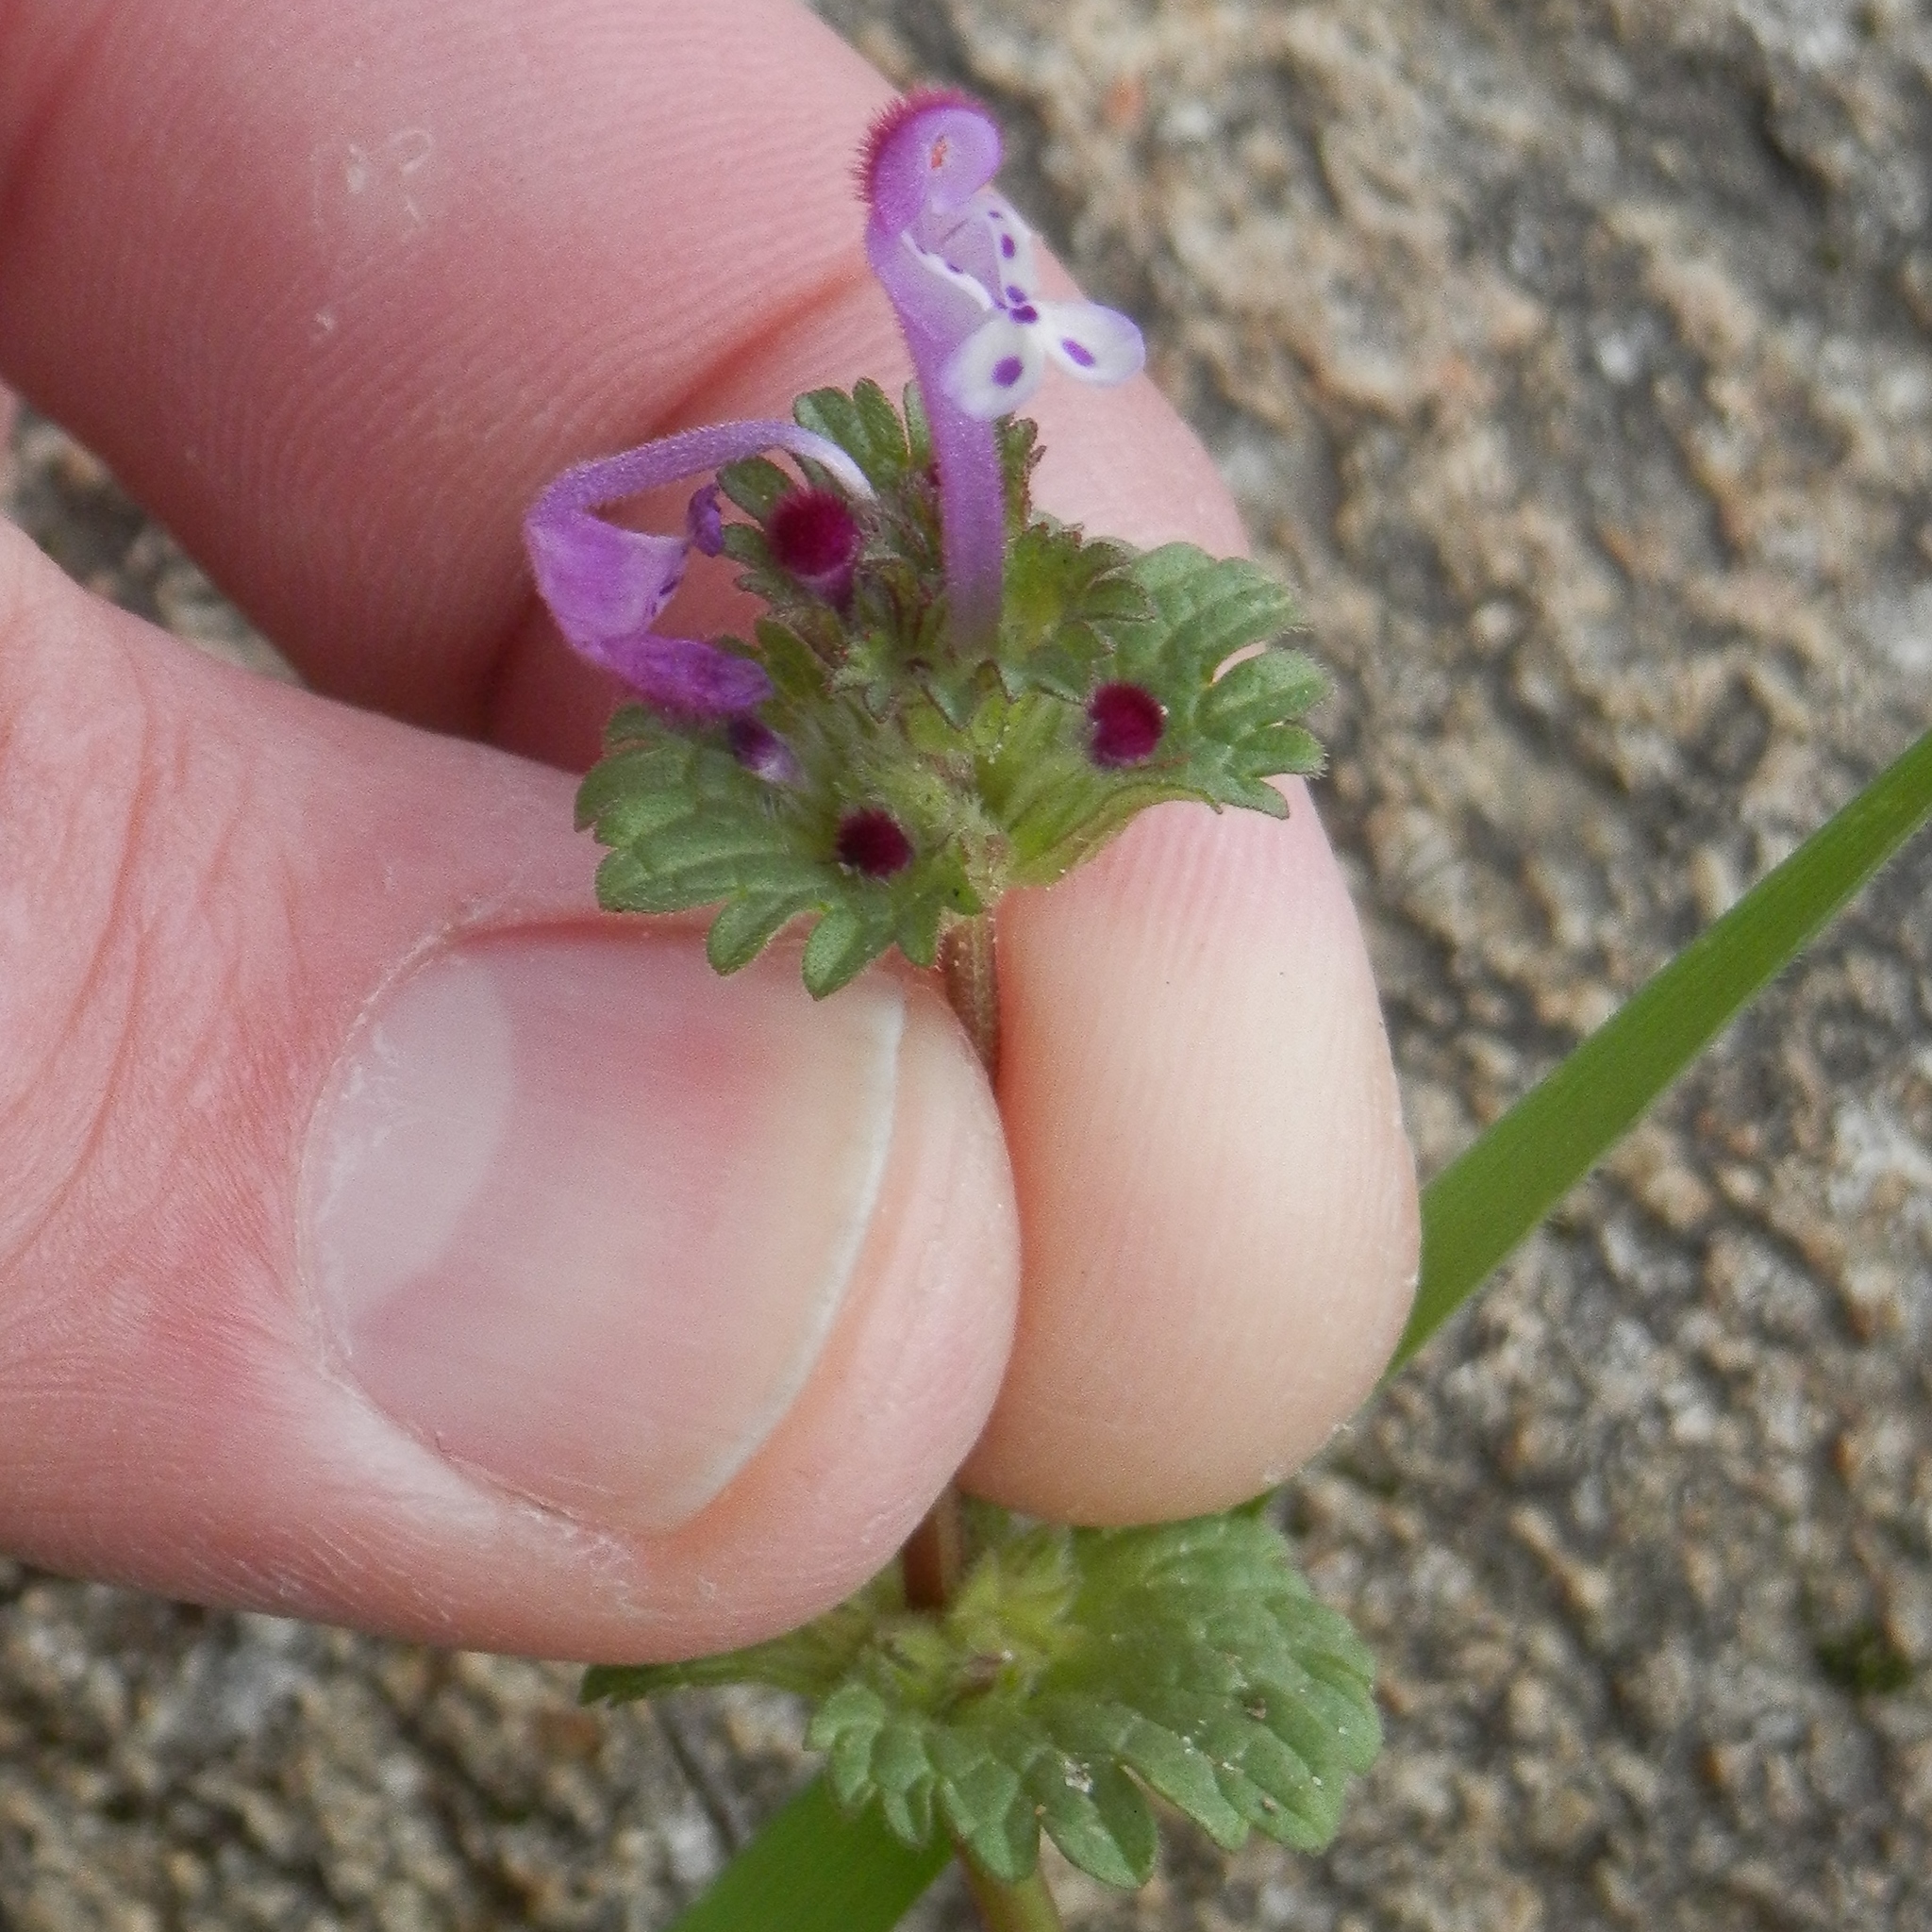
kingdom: Plantae
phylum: Tracheophyta
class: Magnoliopsida
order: Lamiales
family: Lamiaceae
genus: Lamium
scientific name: Lamium amplexicaule
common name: Henbit dead-nettle
